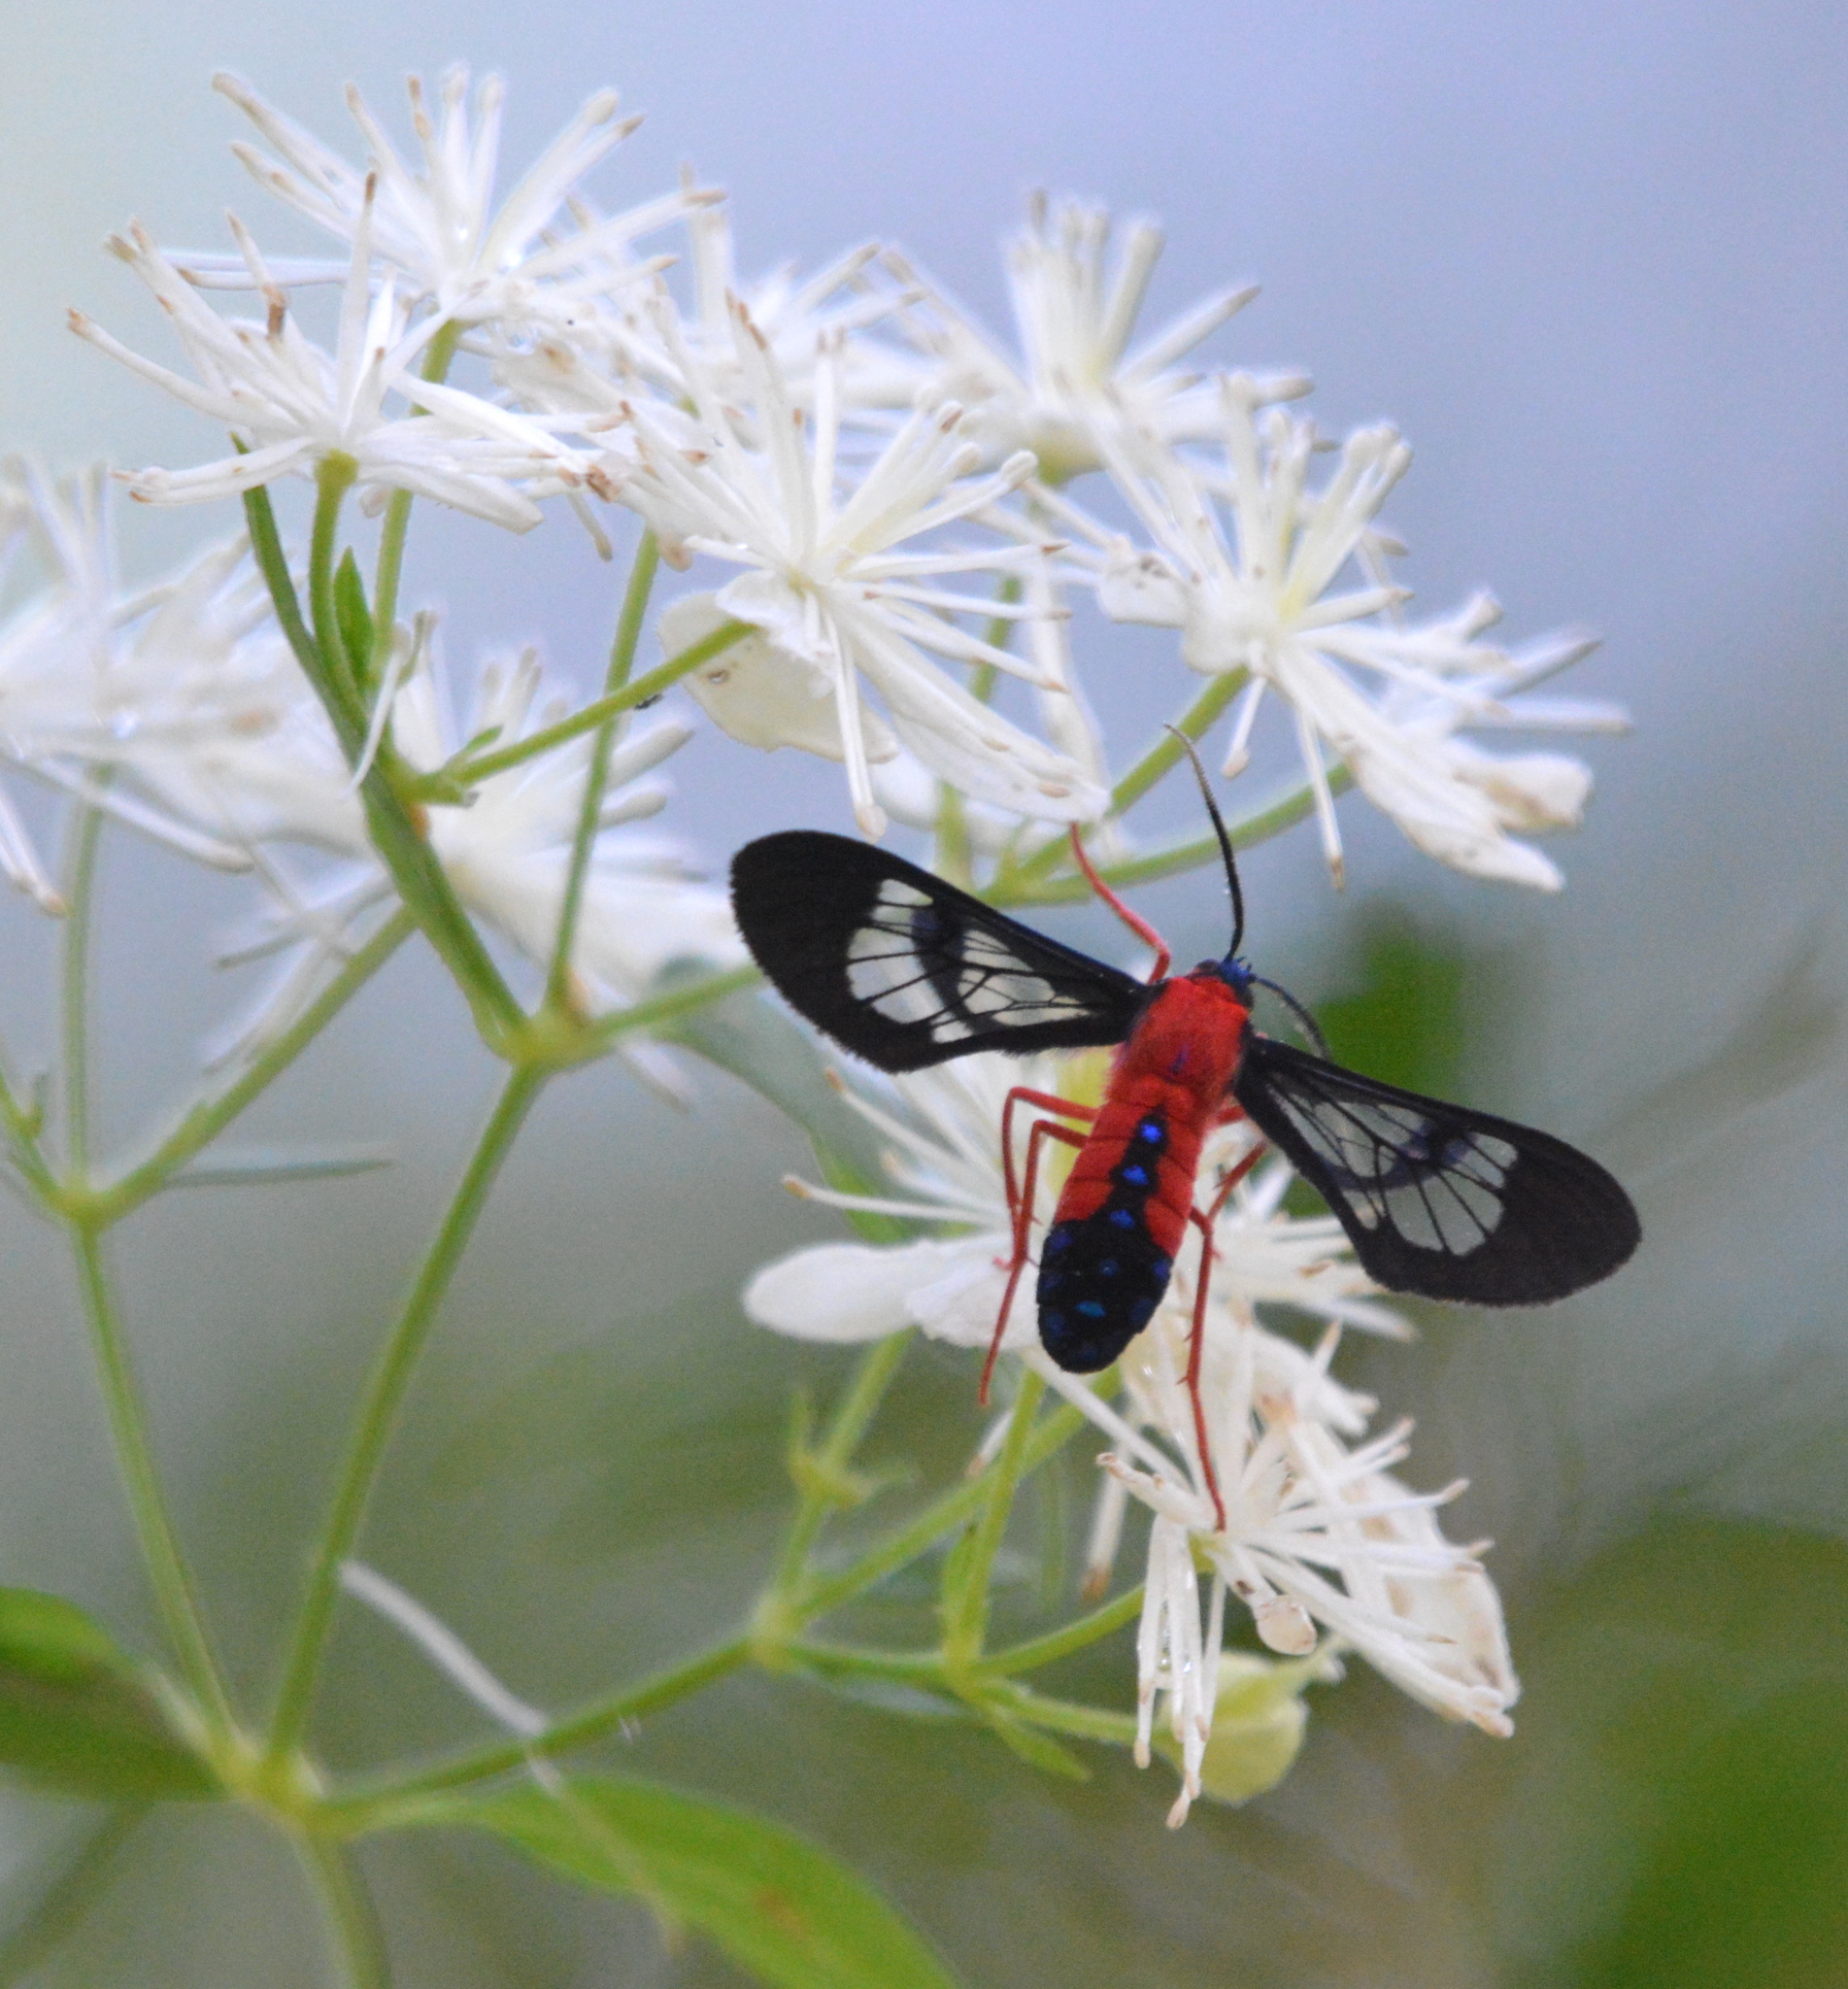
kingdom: Animalia
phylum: Arthropoda
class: Insecta
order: Lepidoptera
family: Erebidae
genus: Cosmosoma
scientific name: Cosmosoma myrodora
